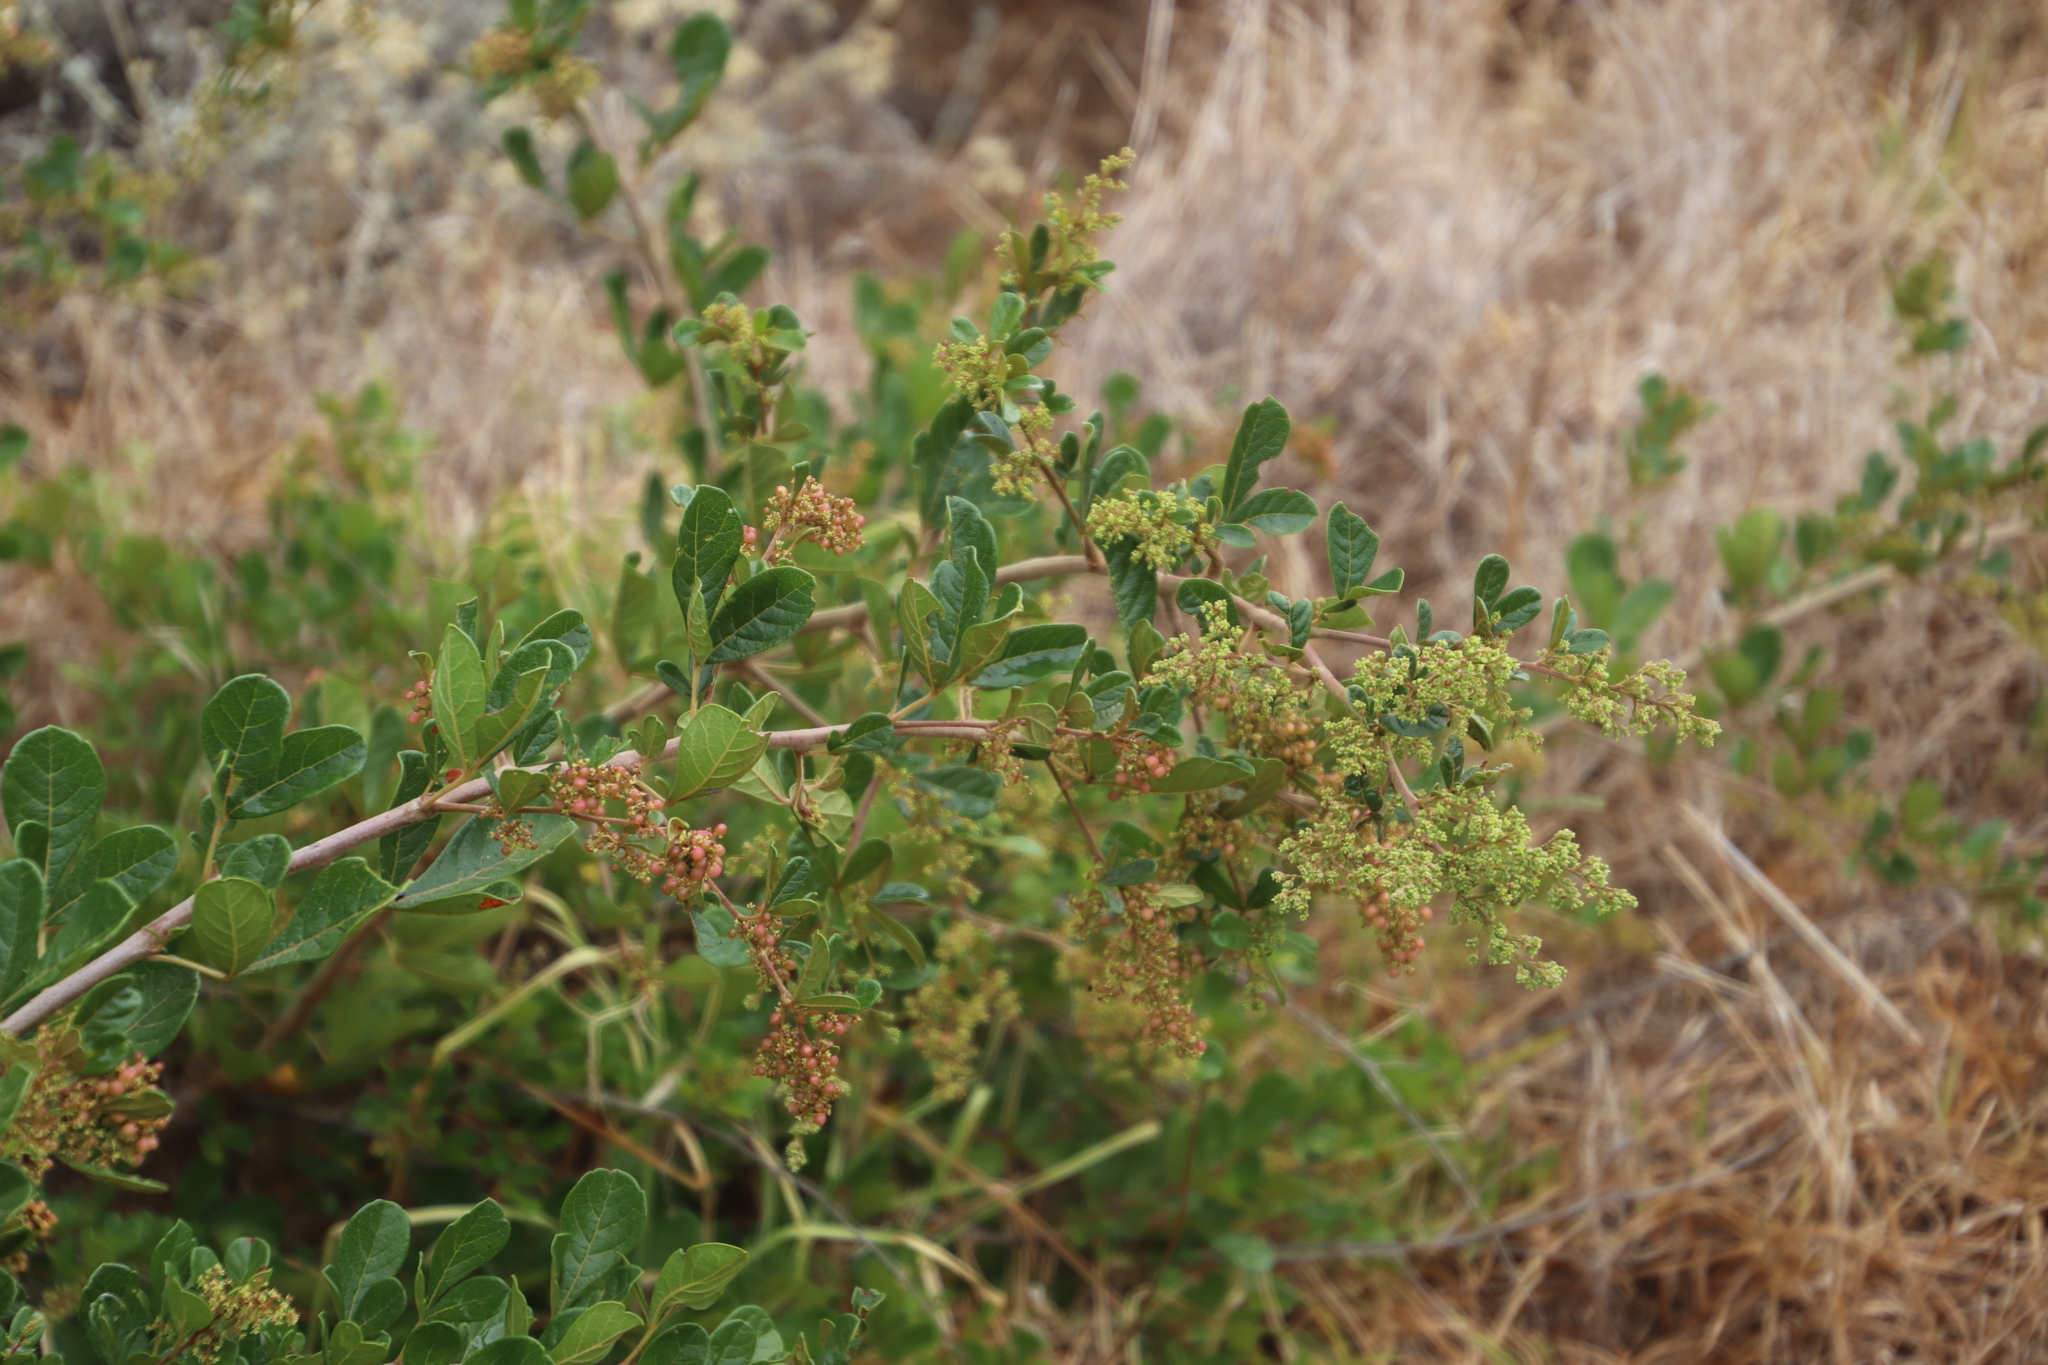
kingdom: Plantae
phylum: Tracheophyta
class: Magnoliopsida
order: Sapindales
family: Anacardiaceae
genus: Searsia
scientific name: Searsia rehmanniana
